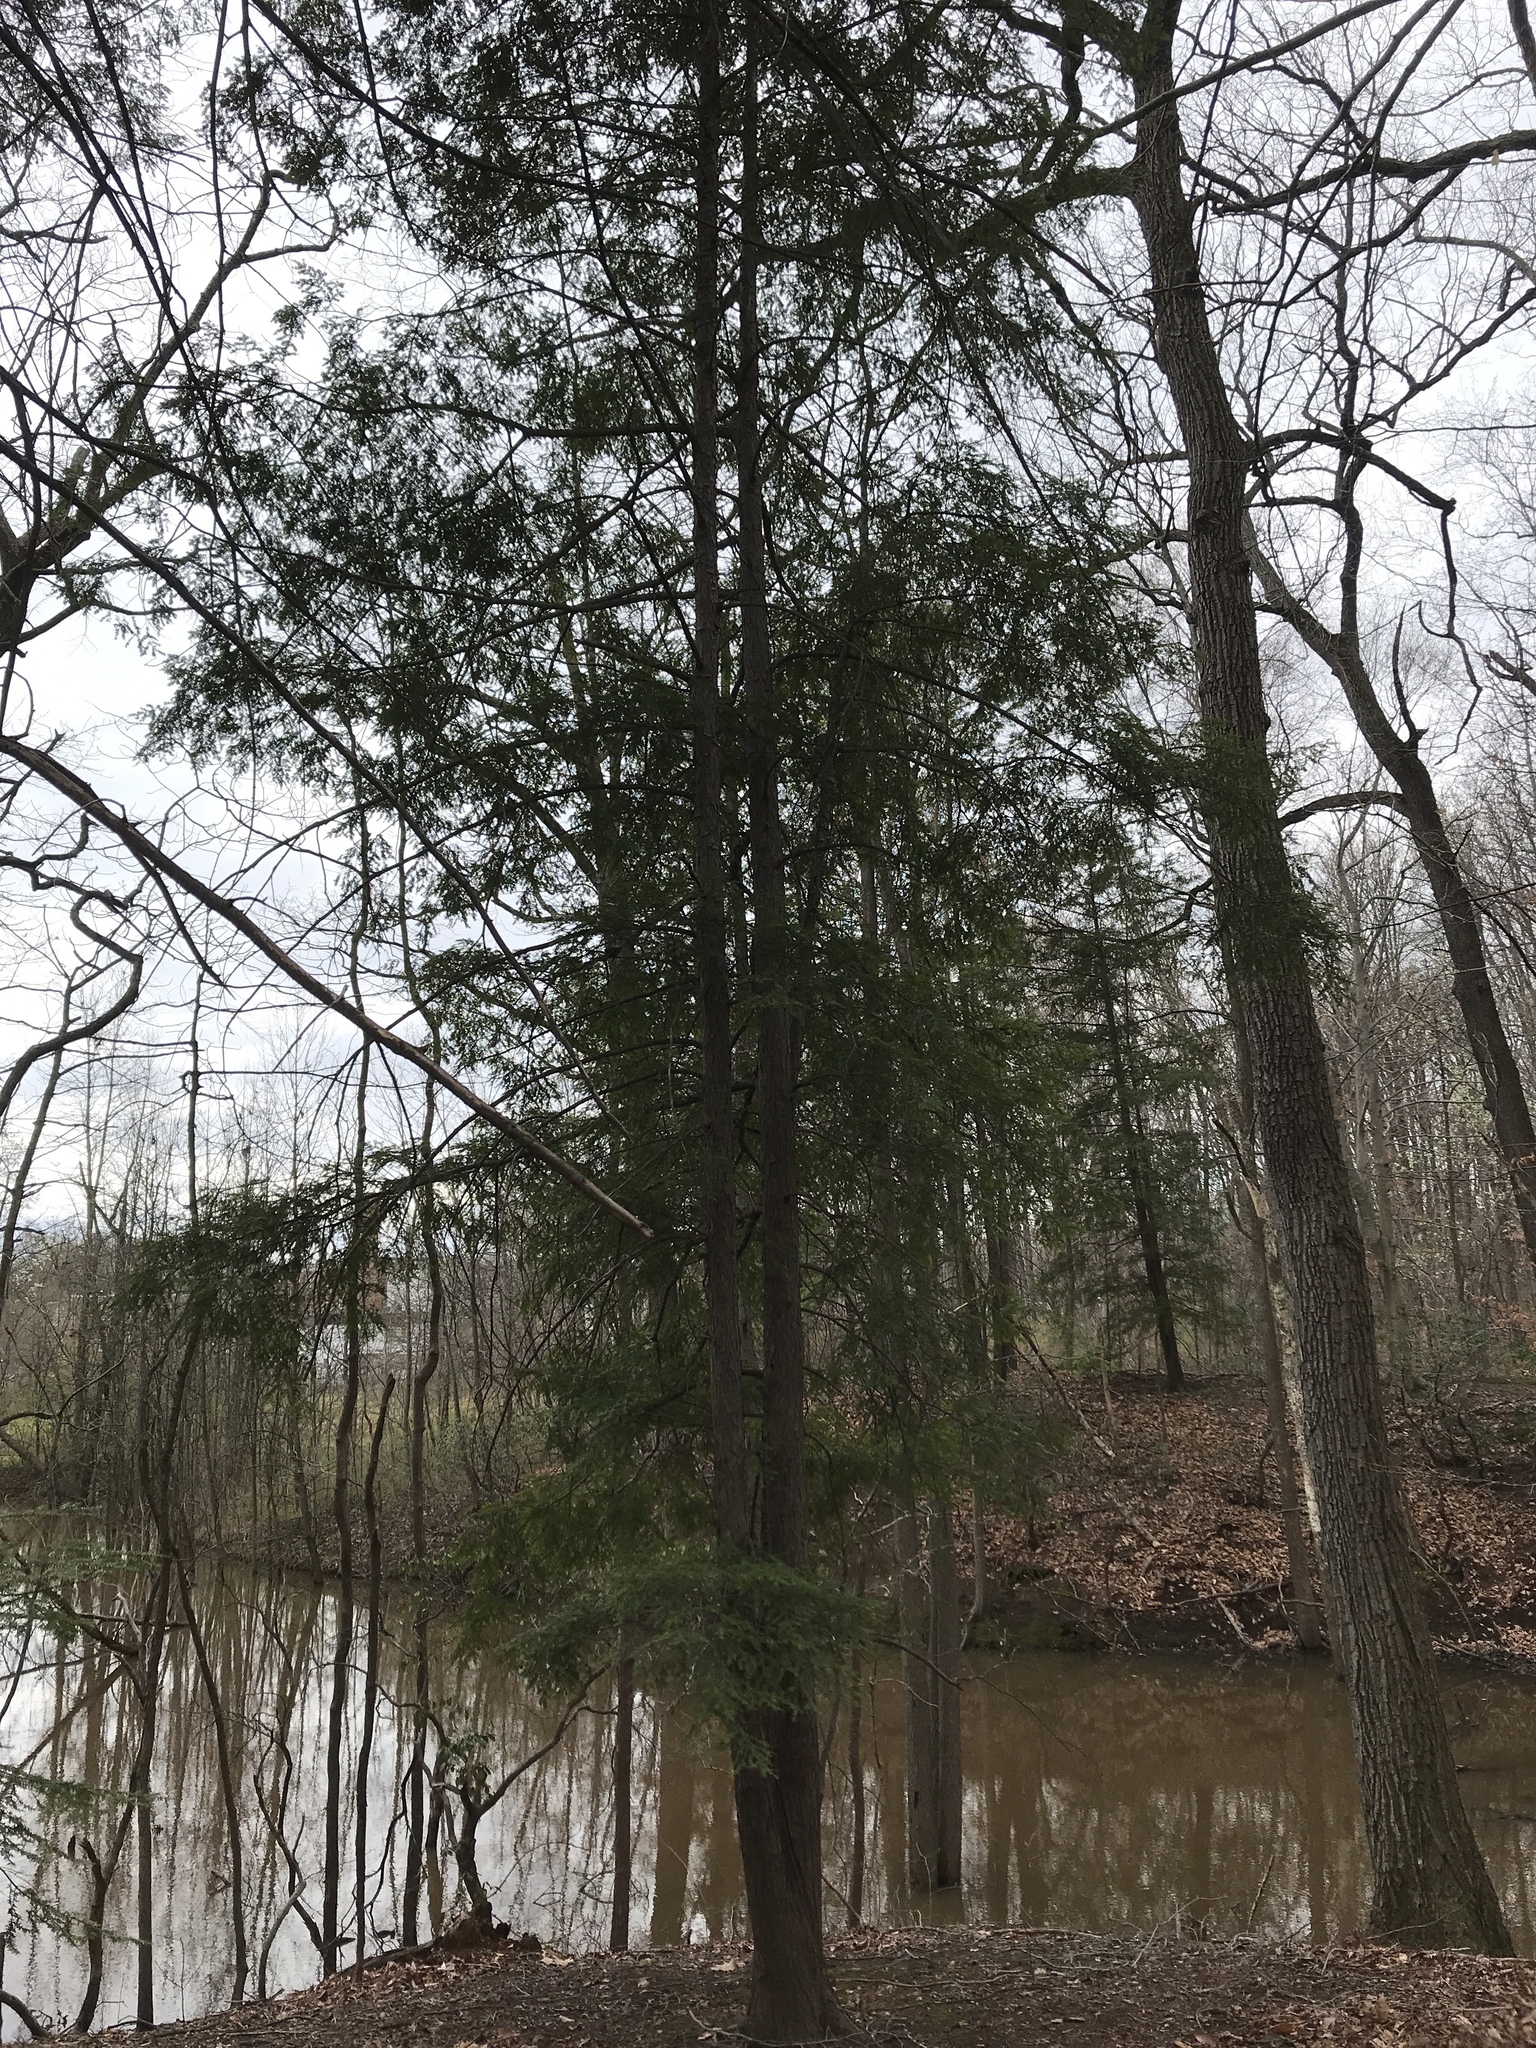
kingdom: Plantae
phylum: Tracheophyta
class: Pinopsida
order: Pinales
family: Pinaceae
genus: Tsuga
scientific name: Tsuga canadensis
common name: Eastern hemlock
